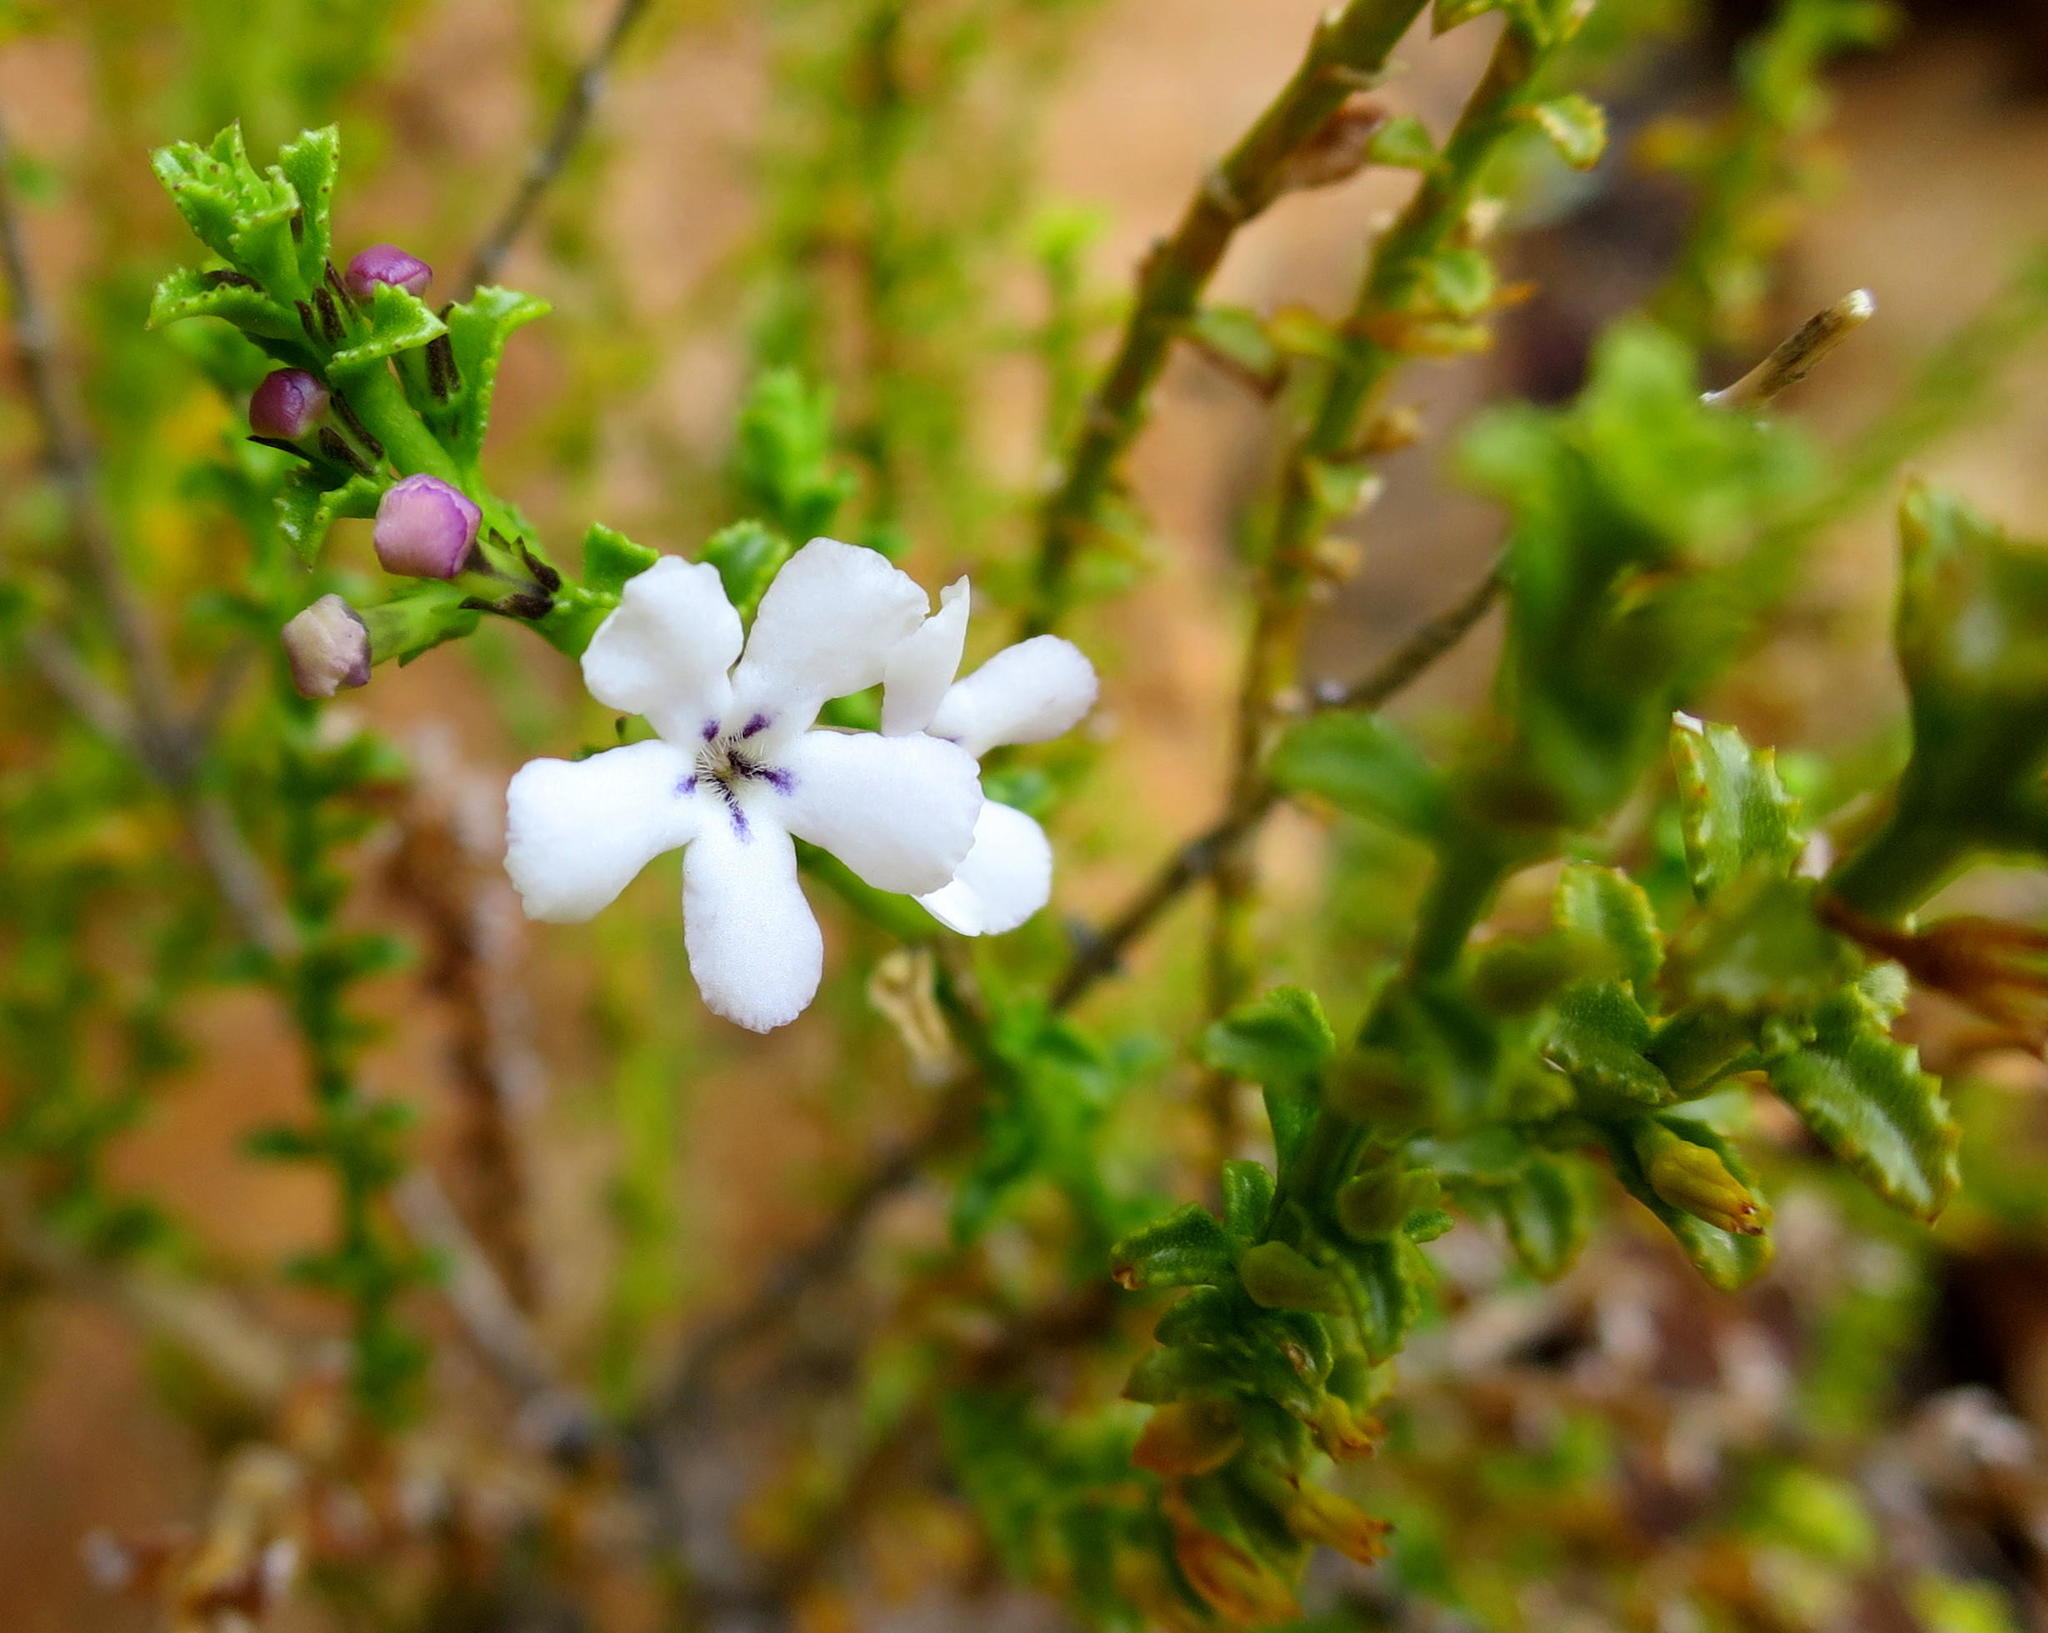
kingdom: Plantae
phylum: Tracheophyta
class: Magnoliopsida
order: Lamiales
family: Scrophulariaceae
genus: Oftia
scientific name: Oftia glabra
